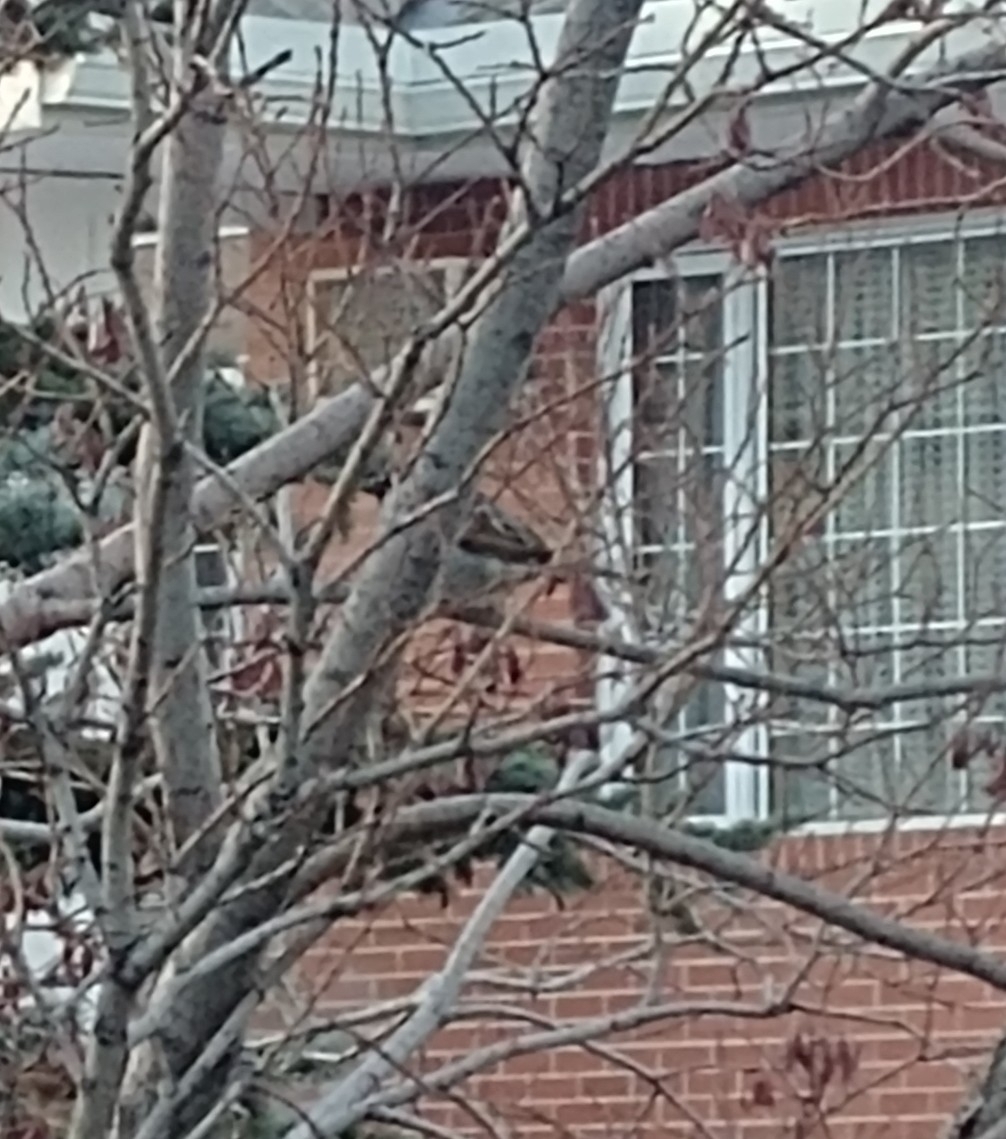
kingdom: Animalia
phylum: Chordata
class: Aves
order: Passeriformes
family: Passeridae
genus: Passer
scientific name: Passer domesticus
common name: House sparrow
